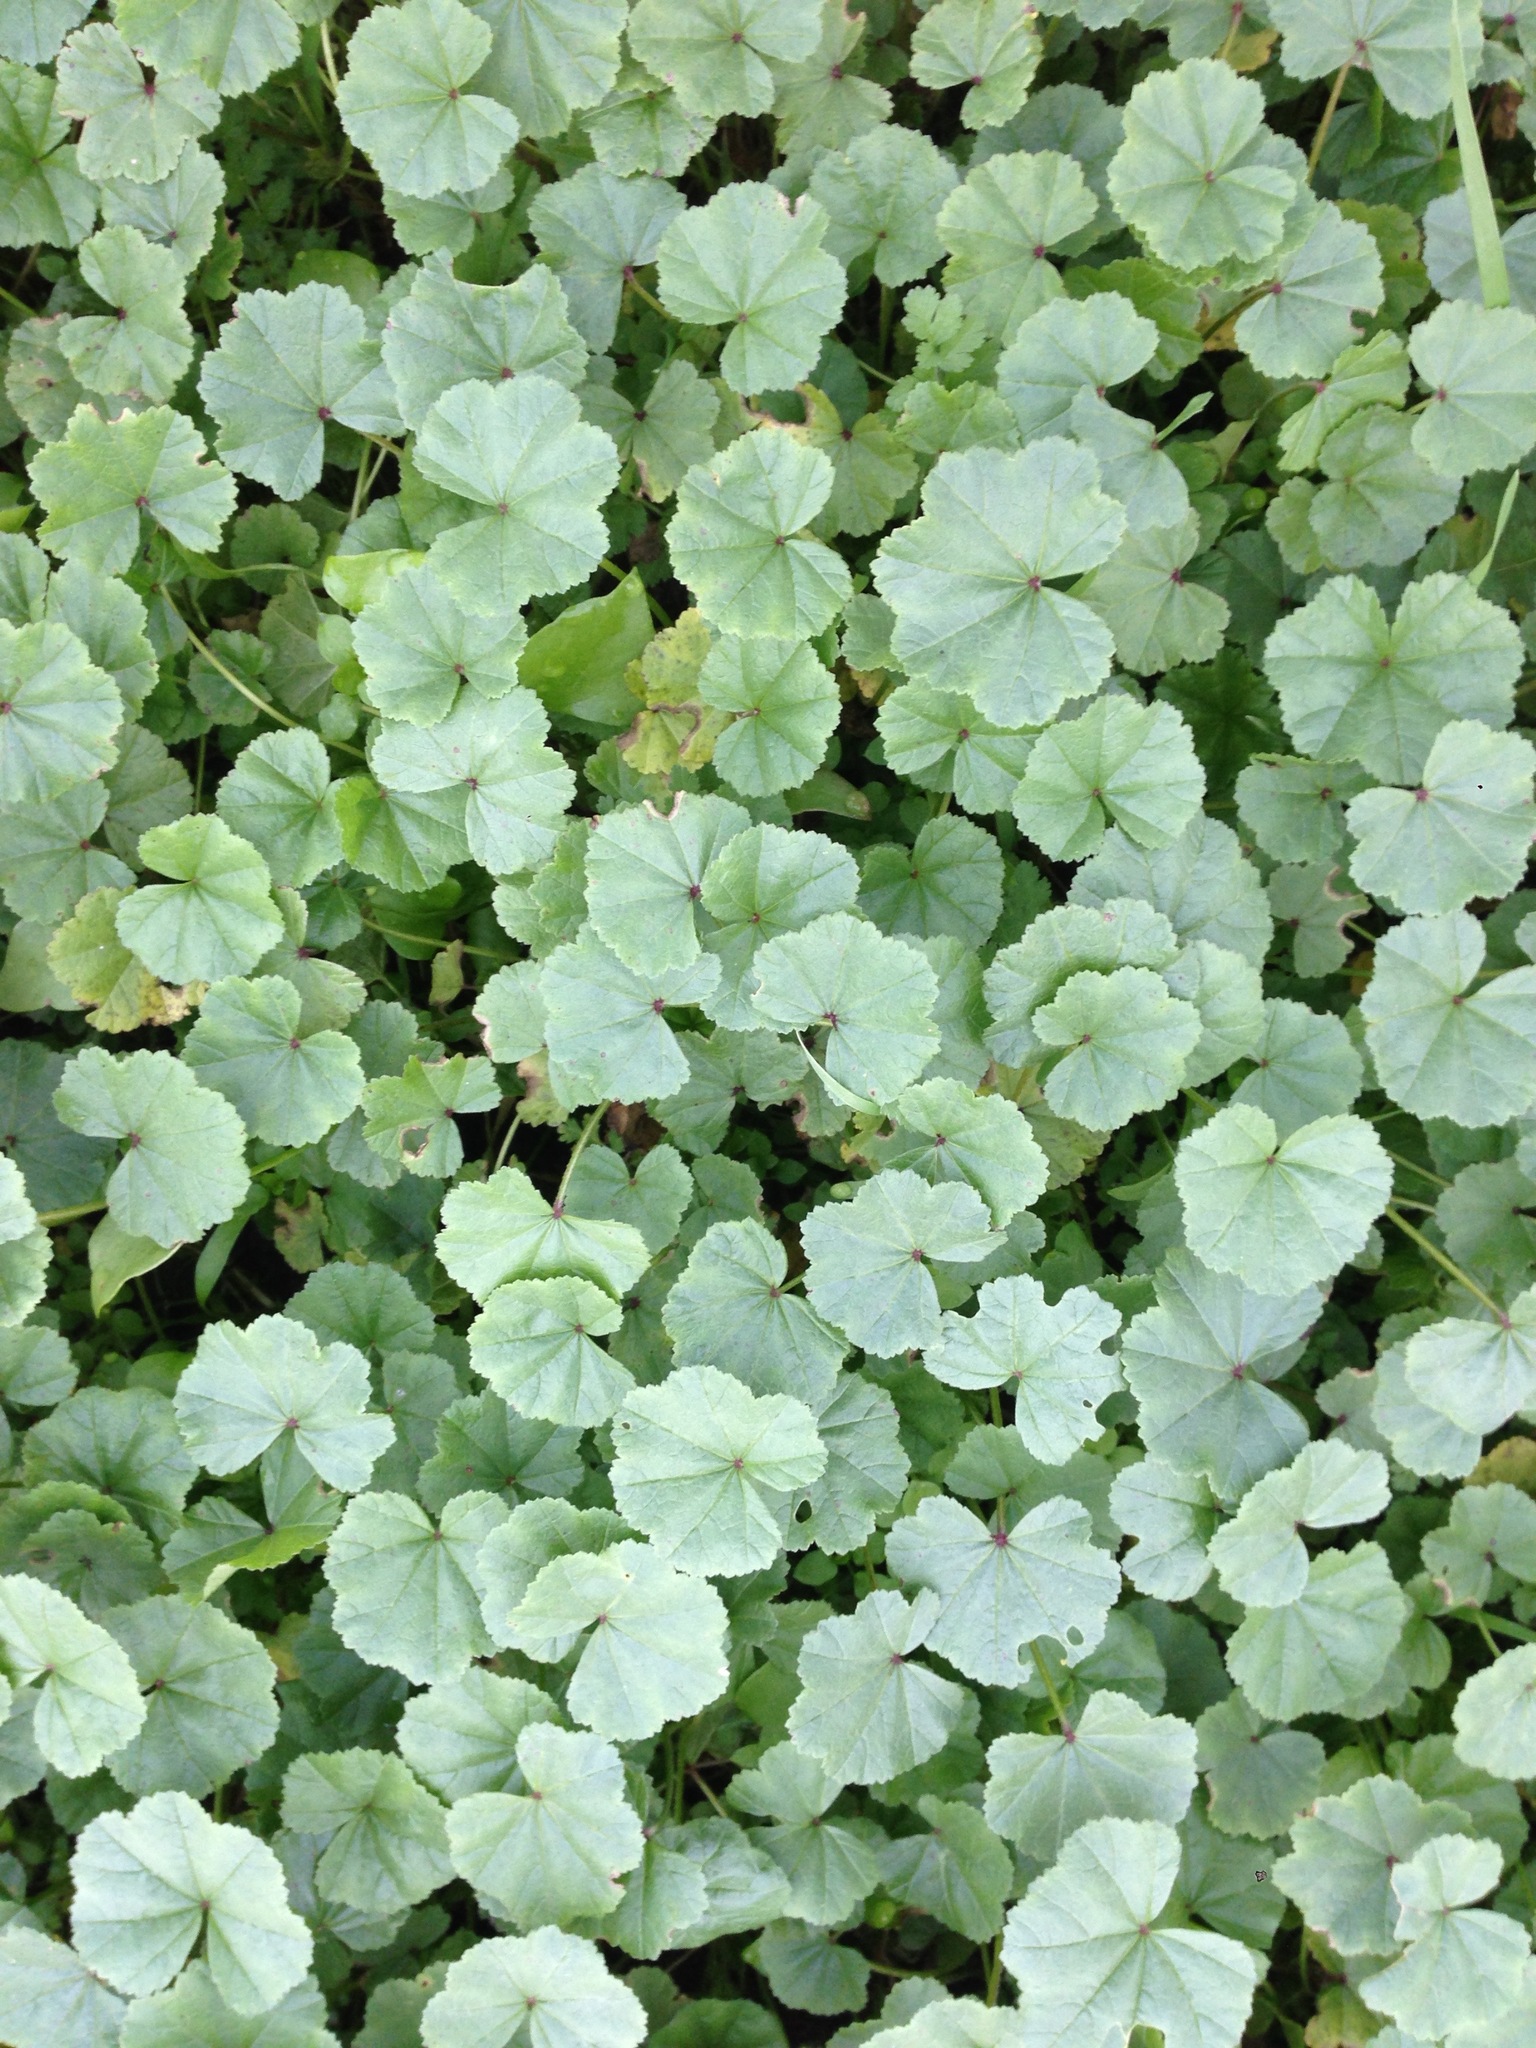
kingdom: Plantae
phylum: Tracheophyta
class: Magnoliopsida
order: Malvales
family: Malvaceae
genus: Malva
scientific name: Malva
